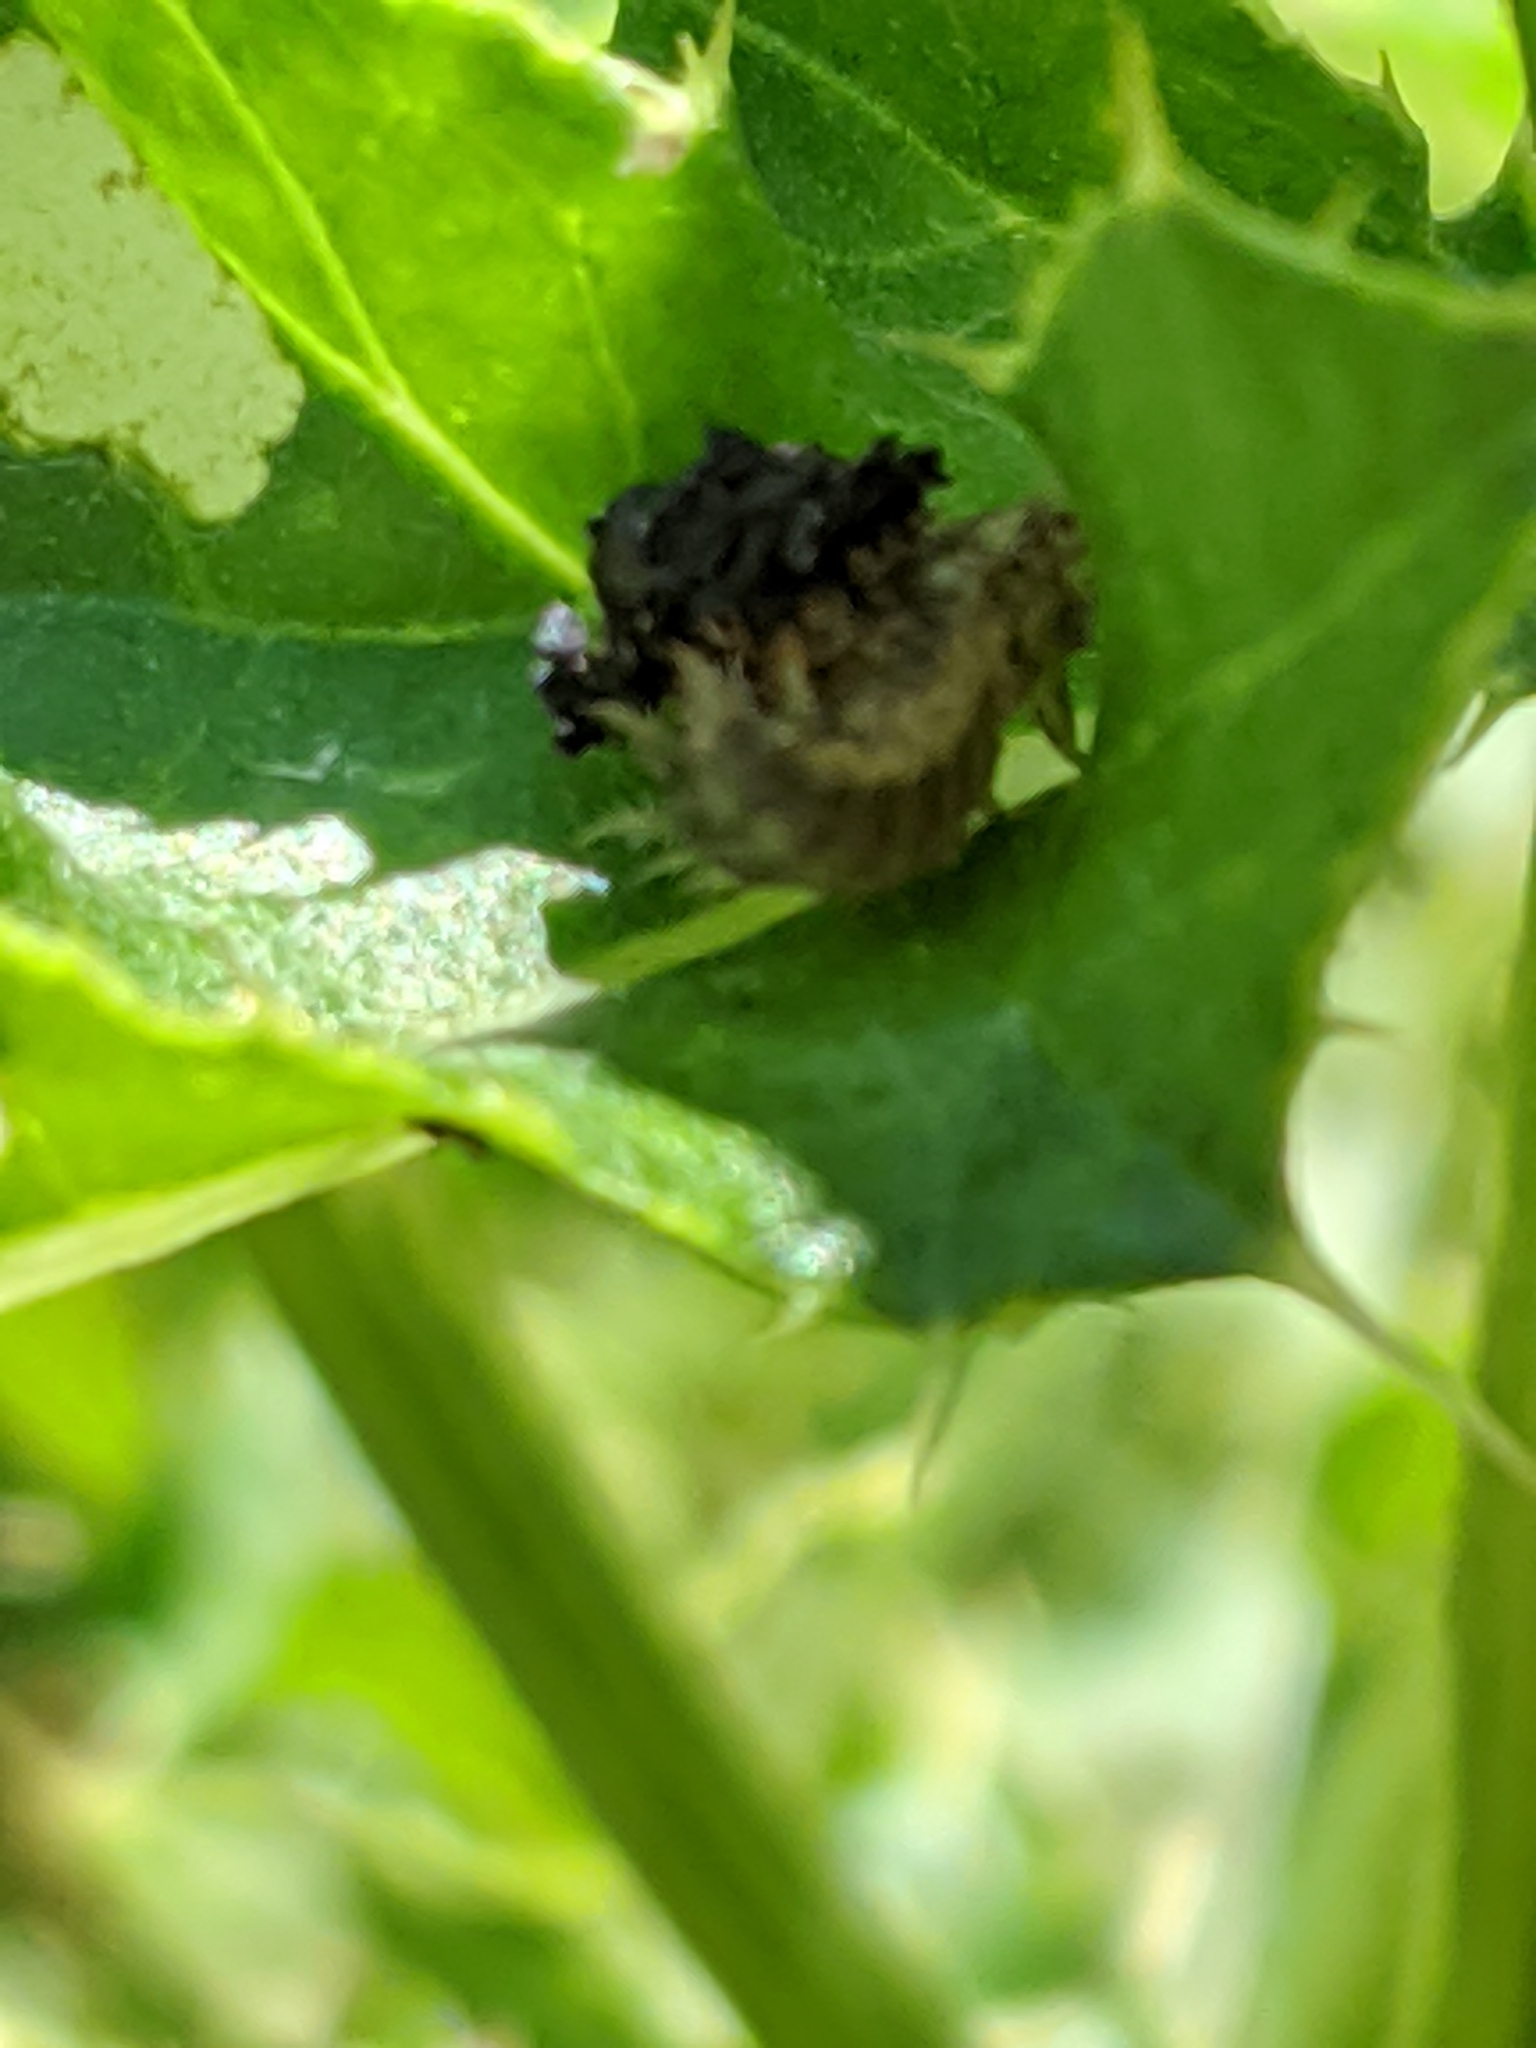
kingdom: Animalia
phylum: Arthropoda
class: Insecta
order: Coleoptera
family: Chrysomelidae
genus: Cassida
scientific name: Cassida rubiginosa
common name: Thistle tortoise beetle
